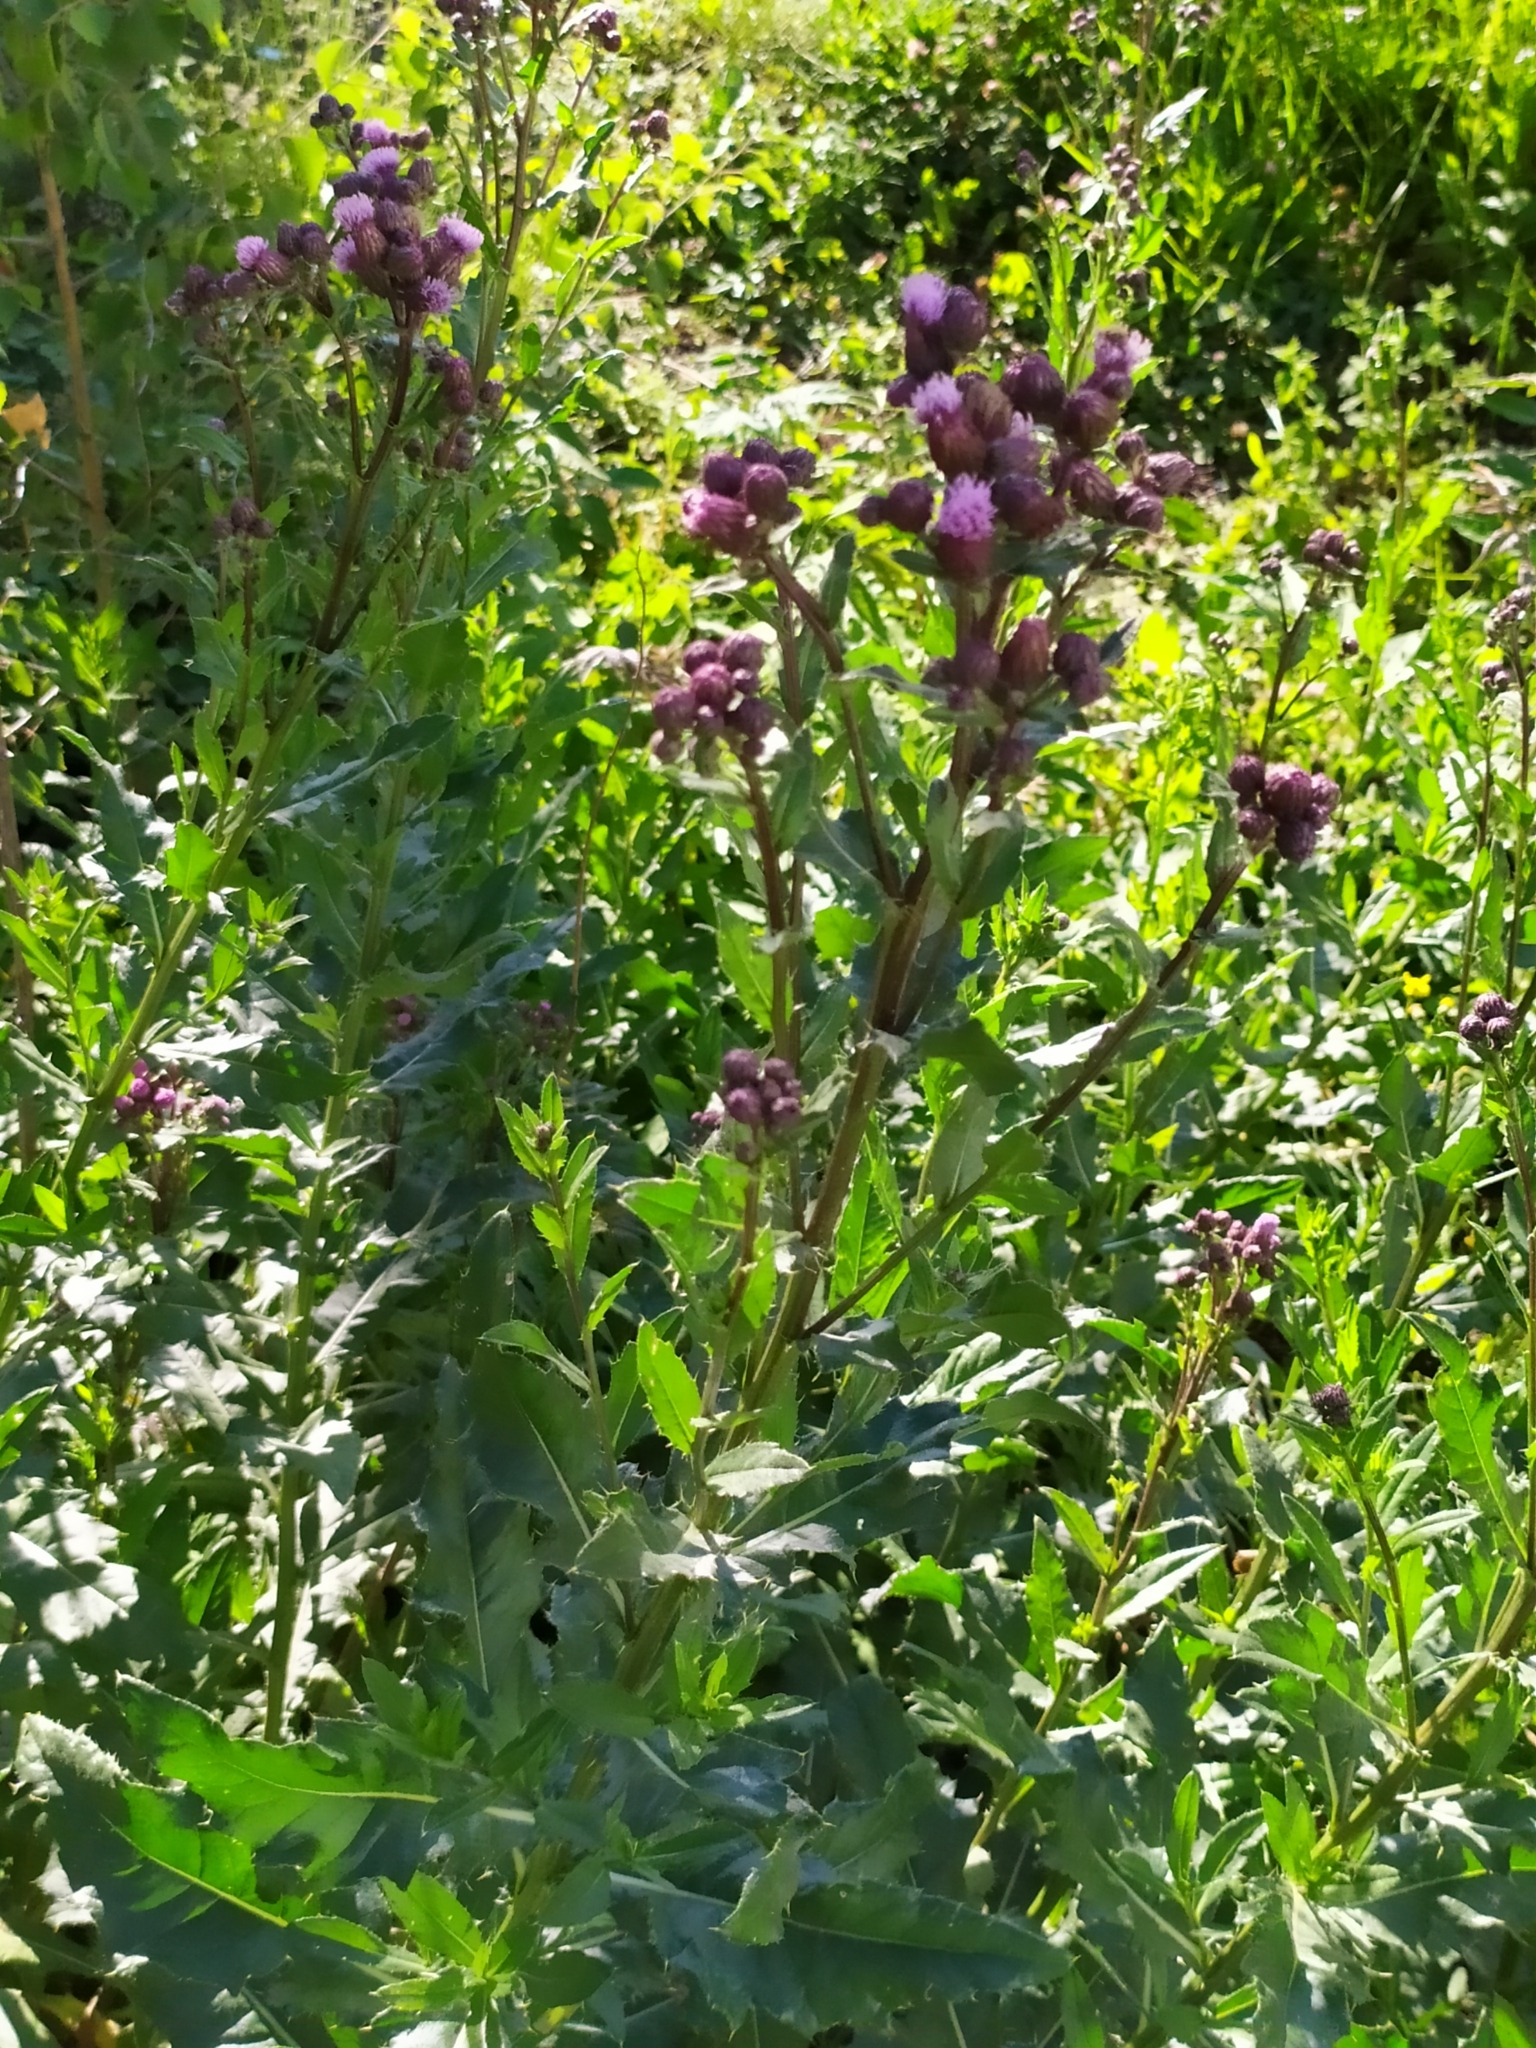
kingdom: Plantae
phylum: Tracheophyta
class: Magnoliopsida
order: Asterales
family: Asteraceae
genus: Cirsium
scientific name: Cirsium arvense
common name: Creeping thistle
